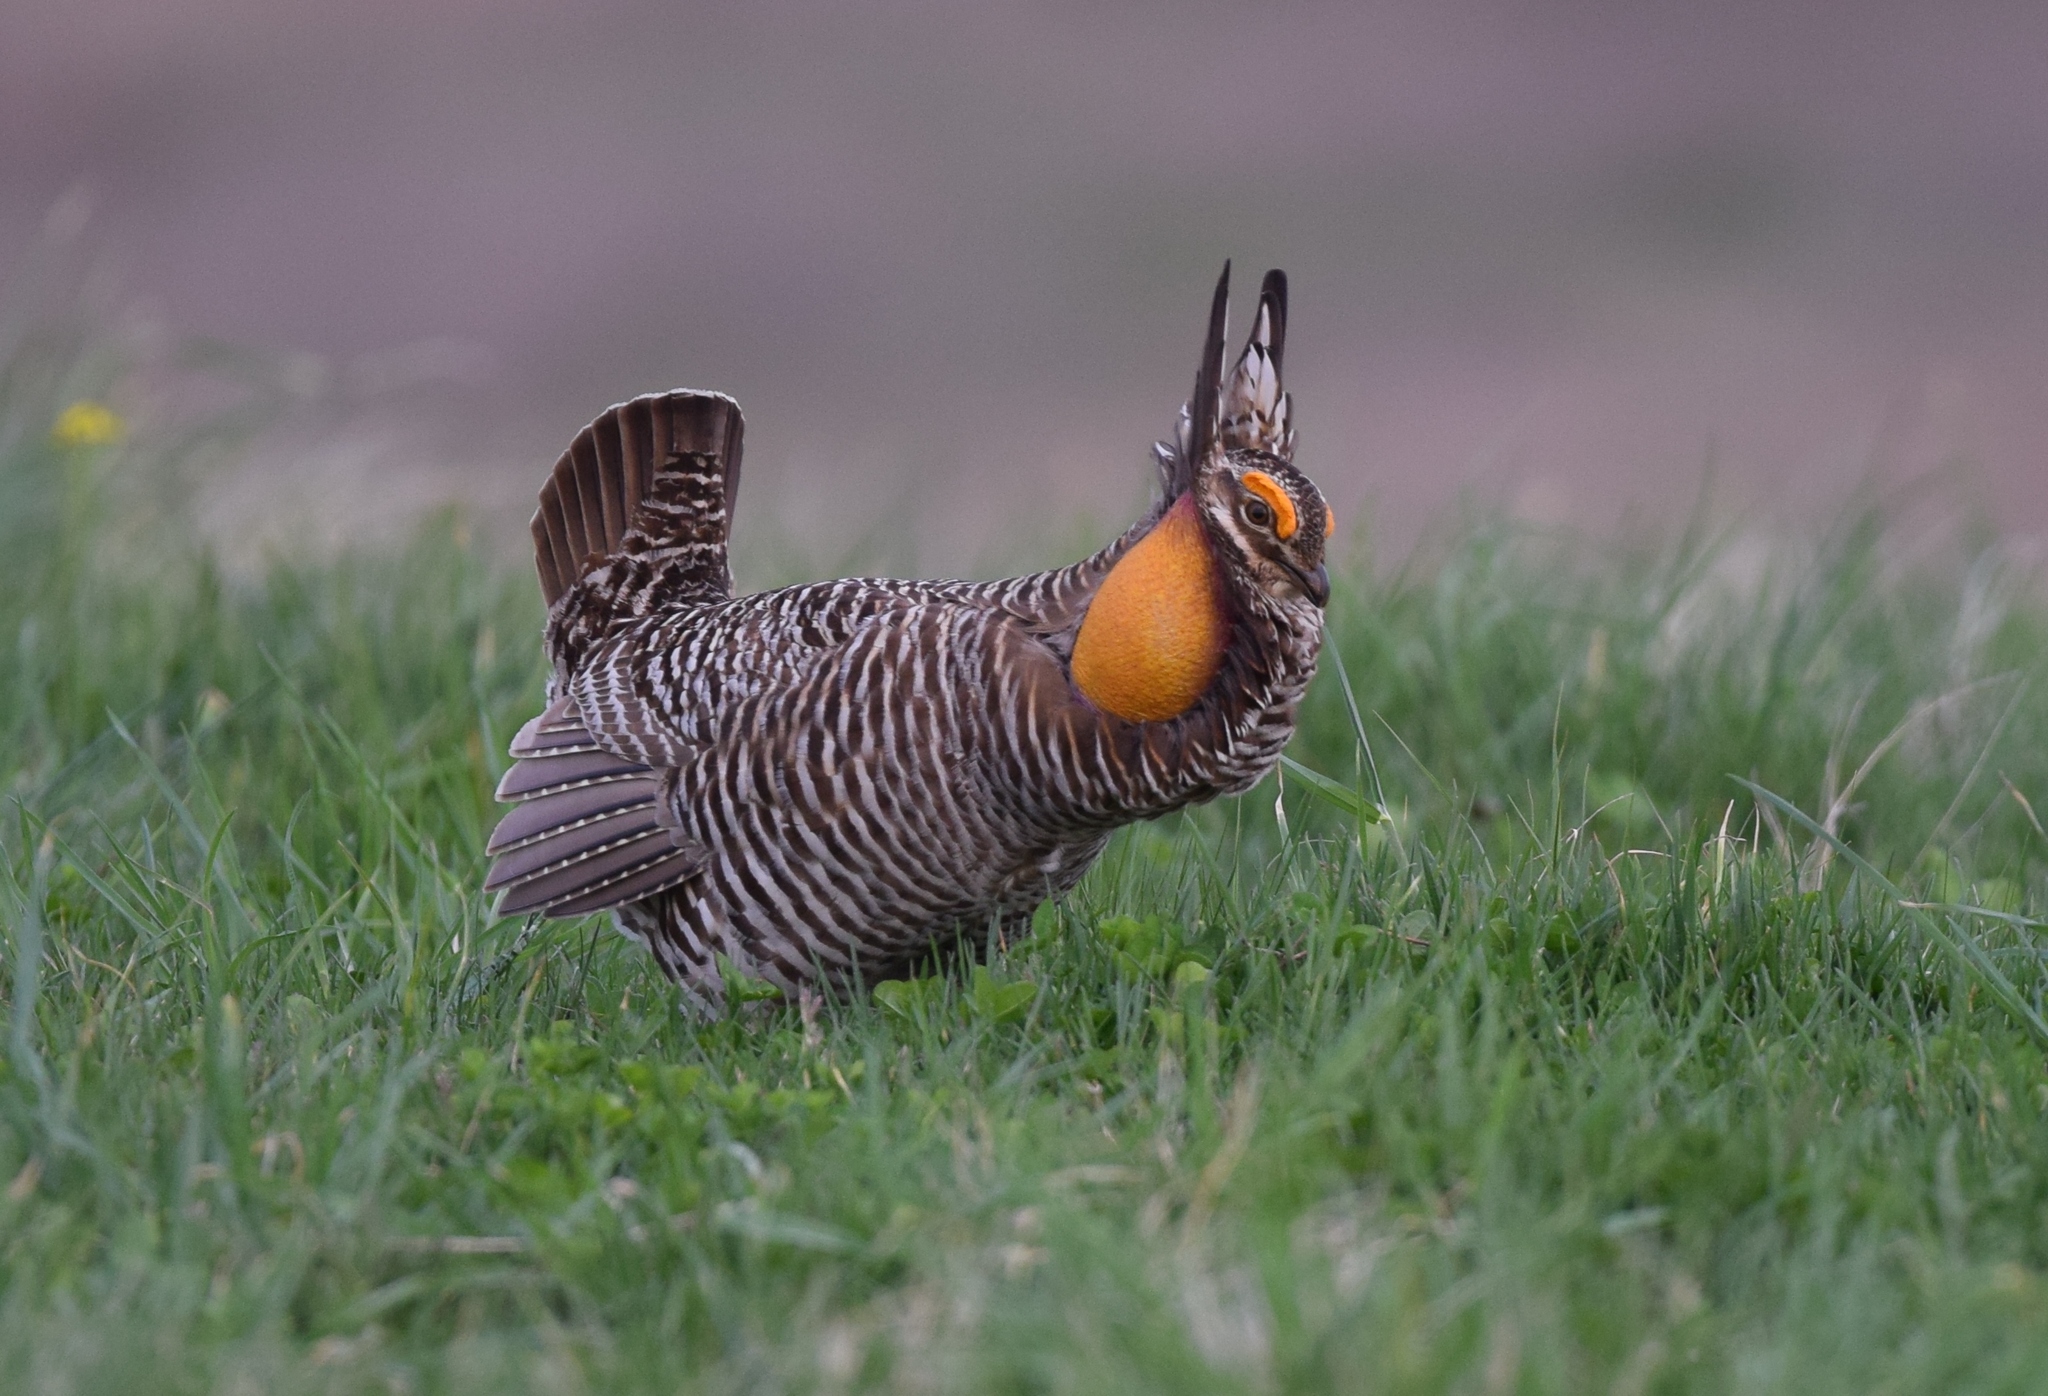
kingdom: Animalia
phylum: Chordata
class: Aves
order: Galliformes
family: Phasianidae
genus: Tympanuchus
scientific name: Tympanuchus cupido
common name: Greater prairie chicken
